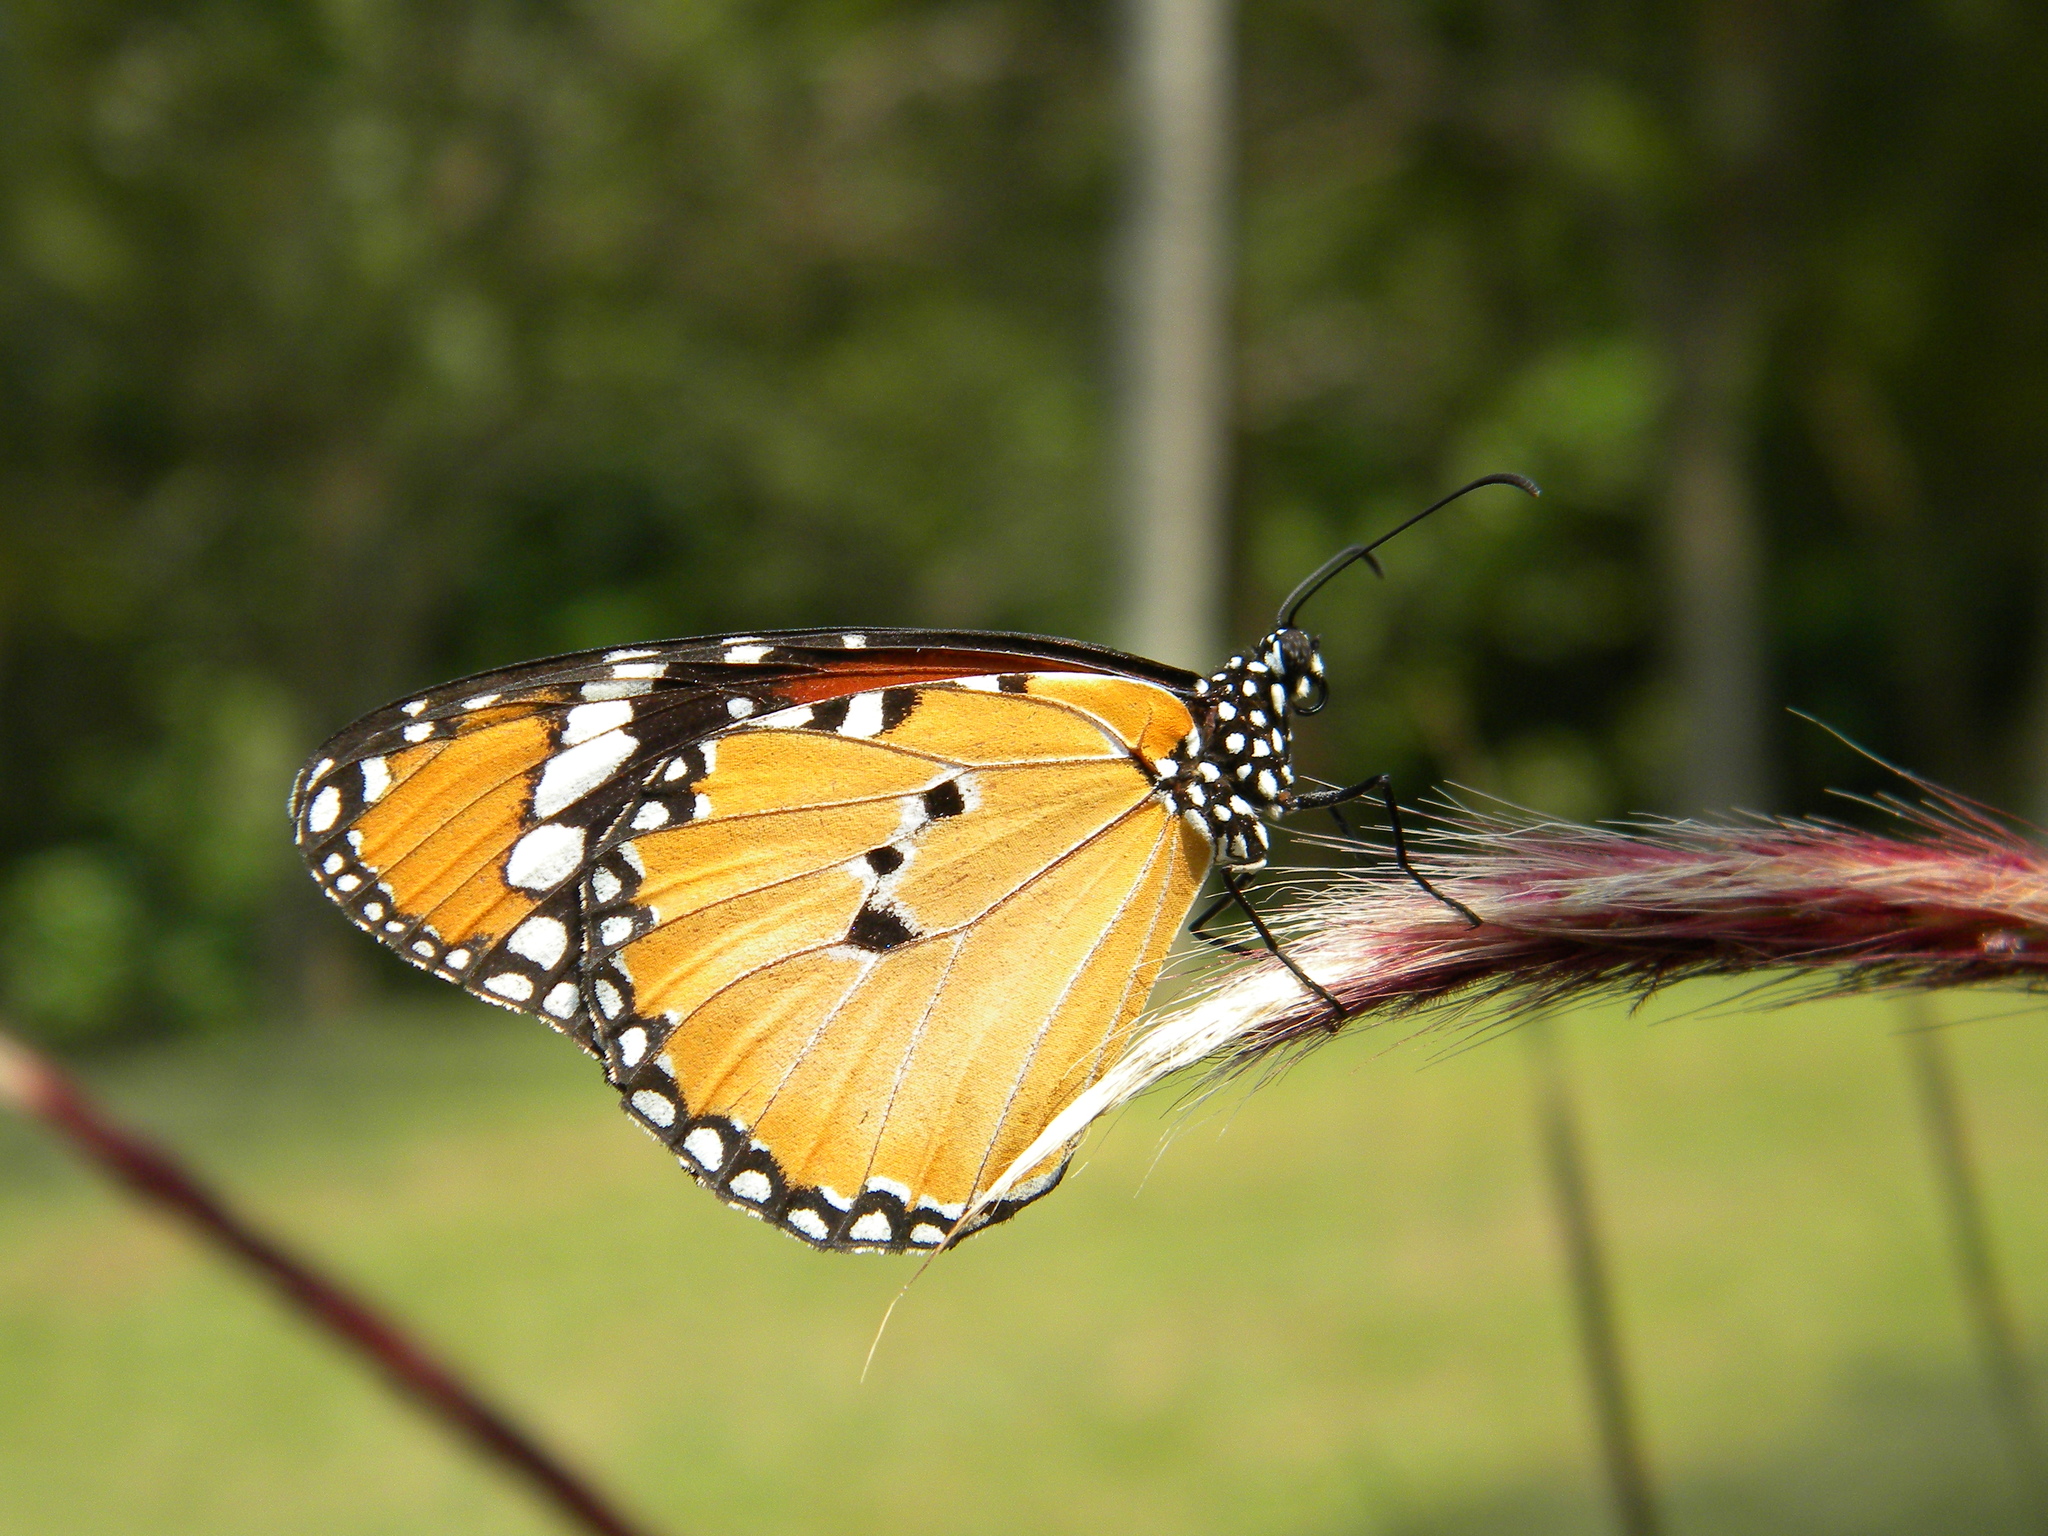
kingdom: Animalia
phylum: Arthropoda
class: Insecta
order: Lepidoptera
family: Nymphalidae
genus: Danaus
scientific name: Danaus chrysippus
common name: Plain tiger
